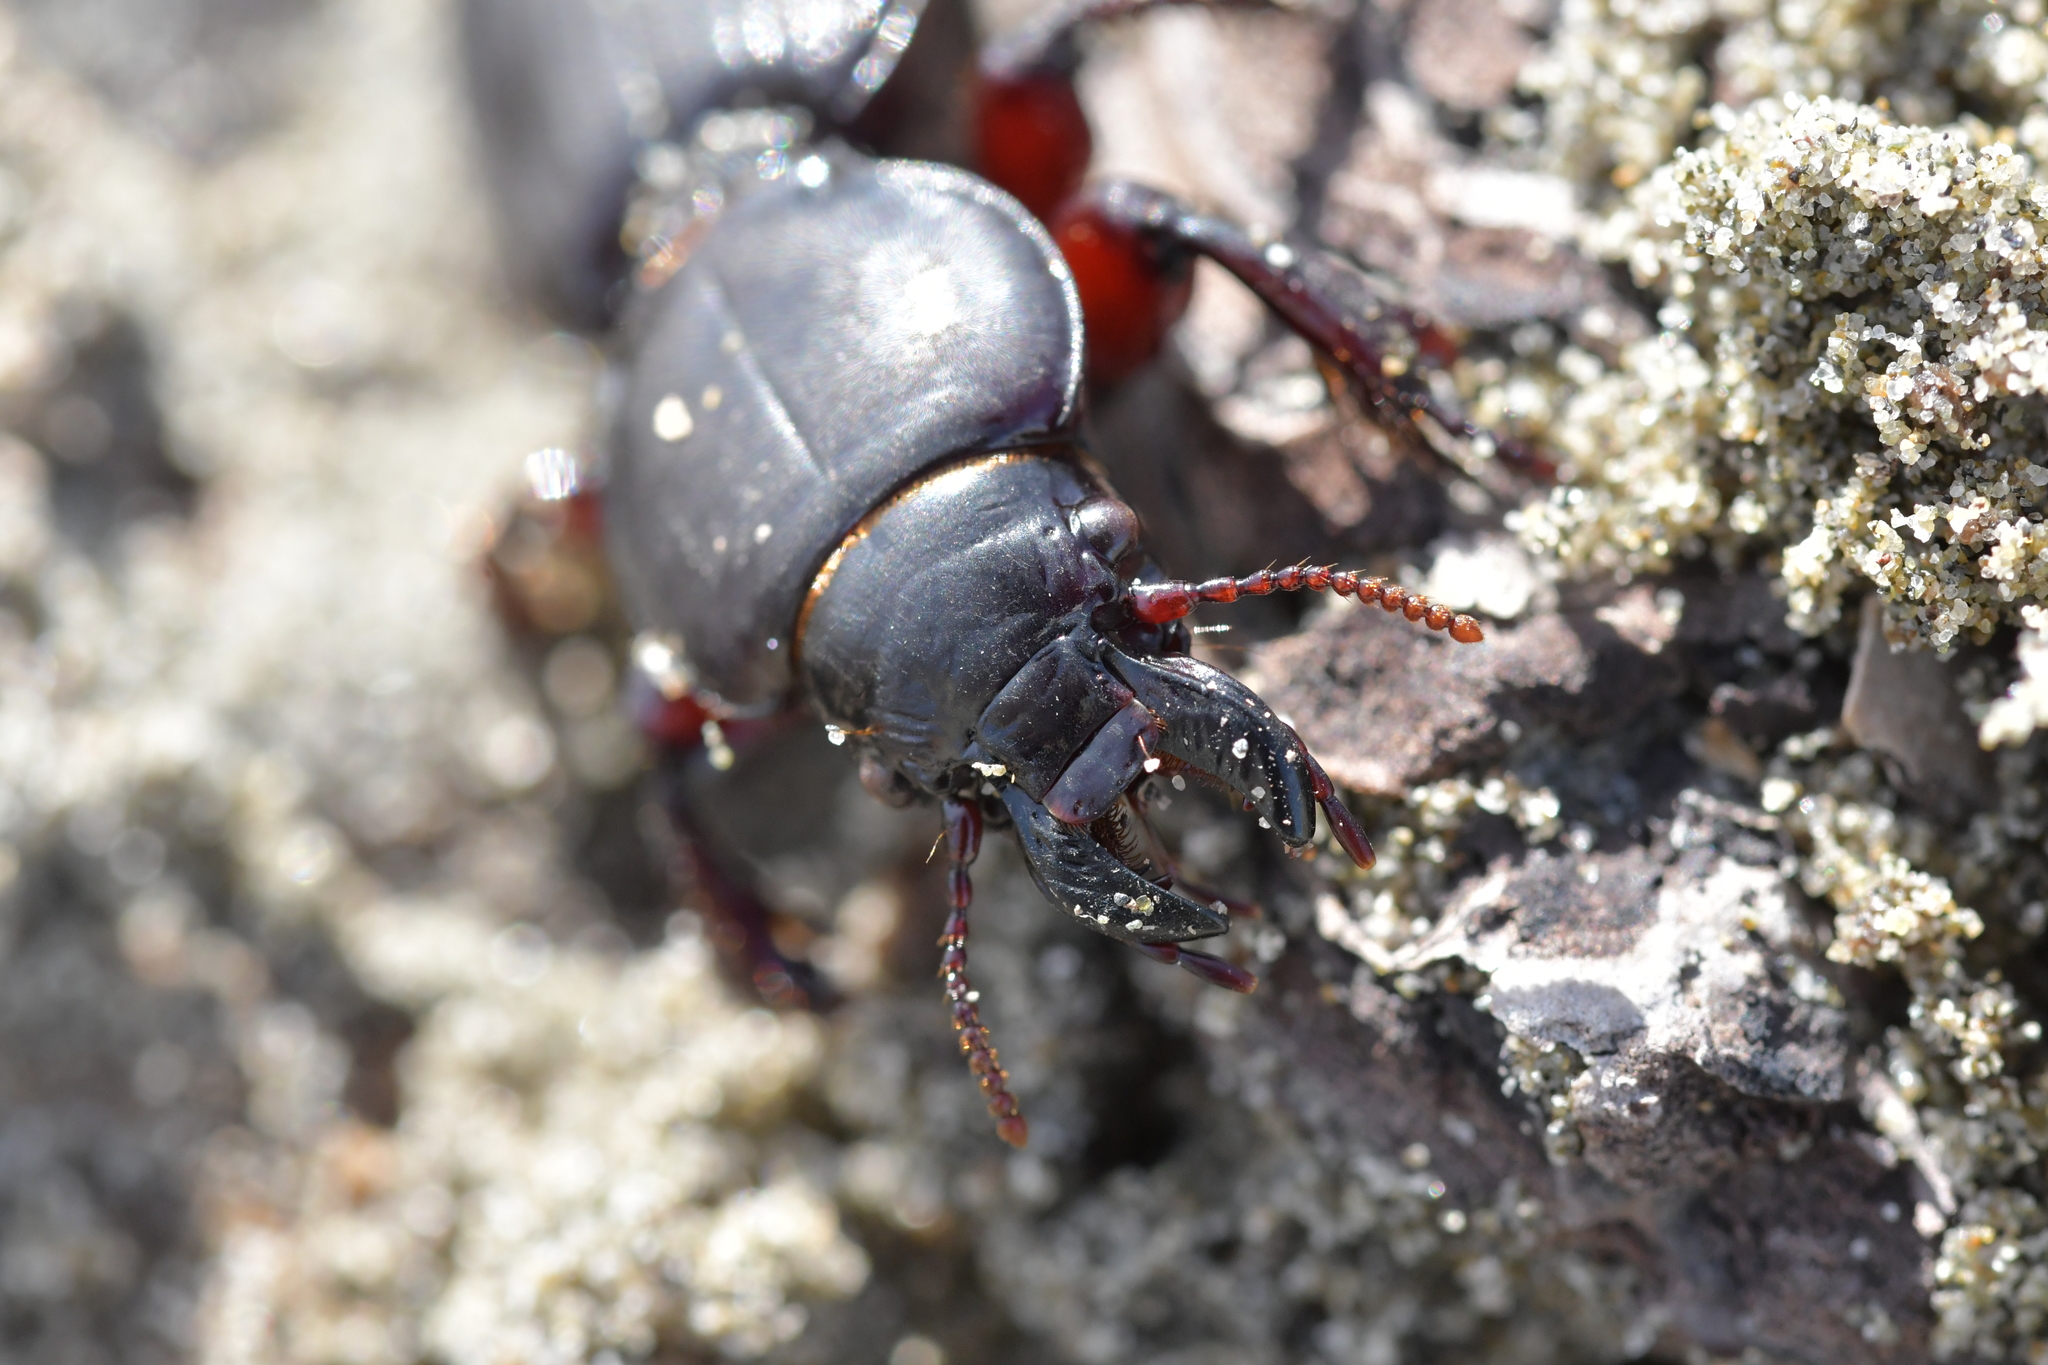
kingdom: Animalia
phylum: Arthropoda
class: Insecta
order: Coleoptera
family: Carabidae
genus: Mecodema
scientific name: Mecodema antarcticum
